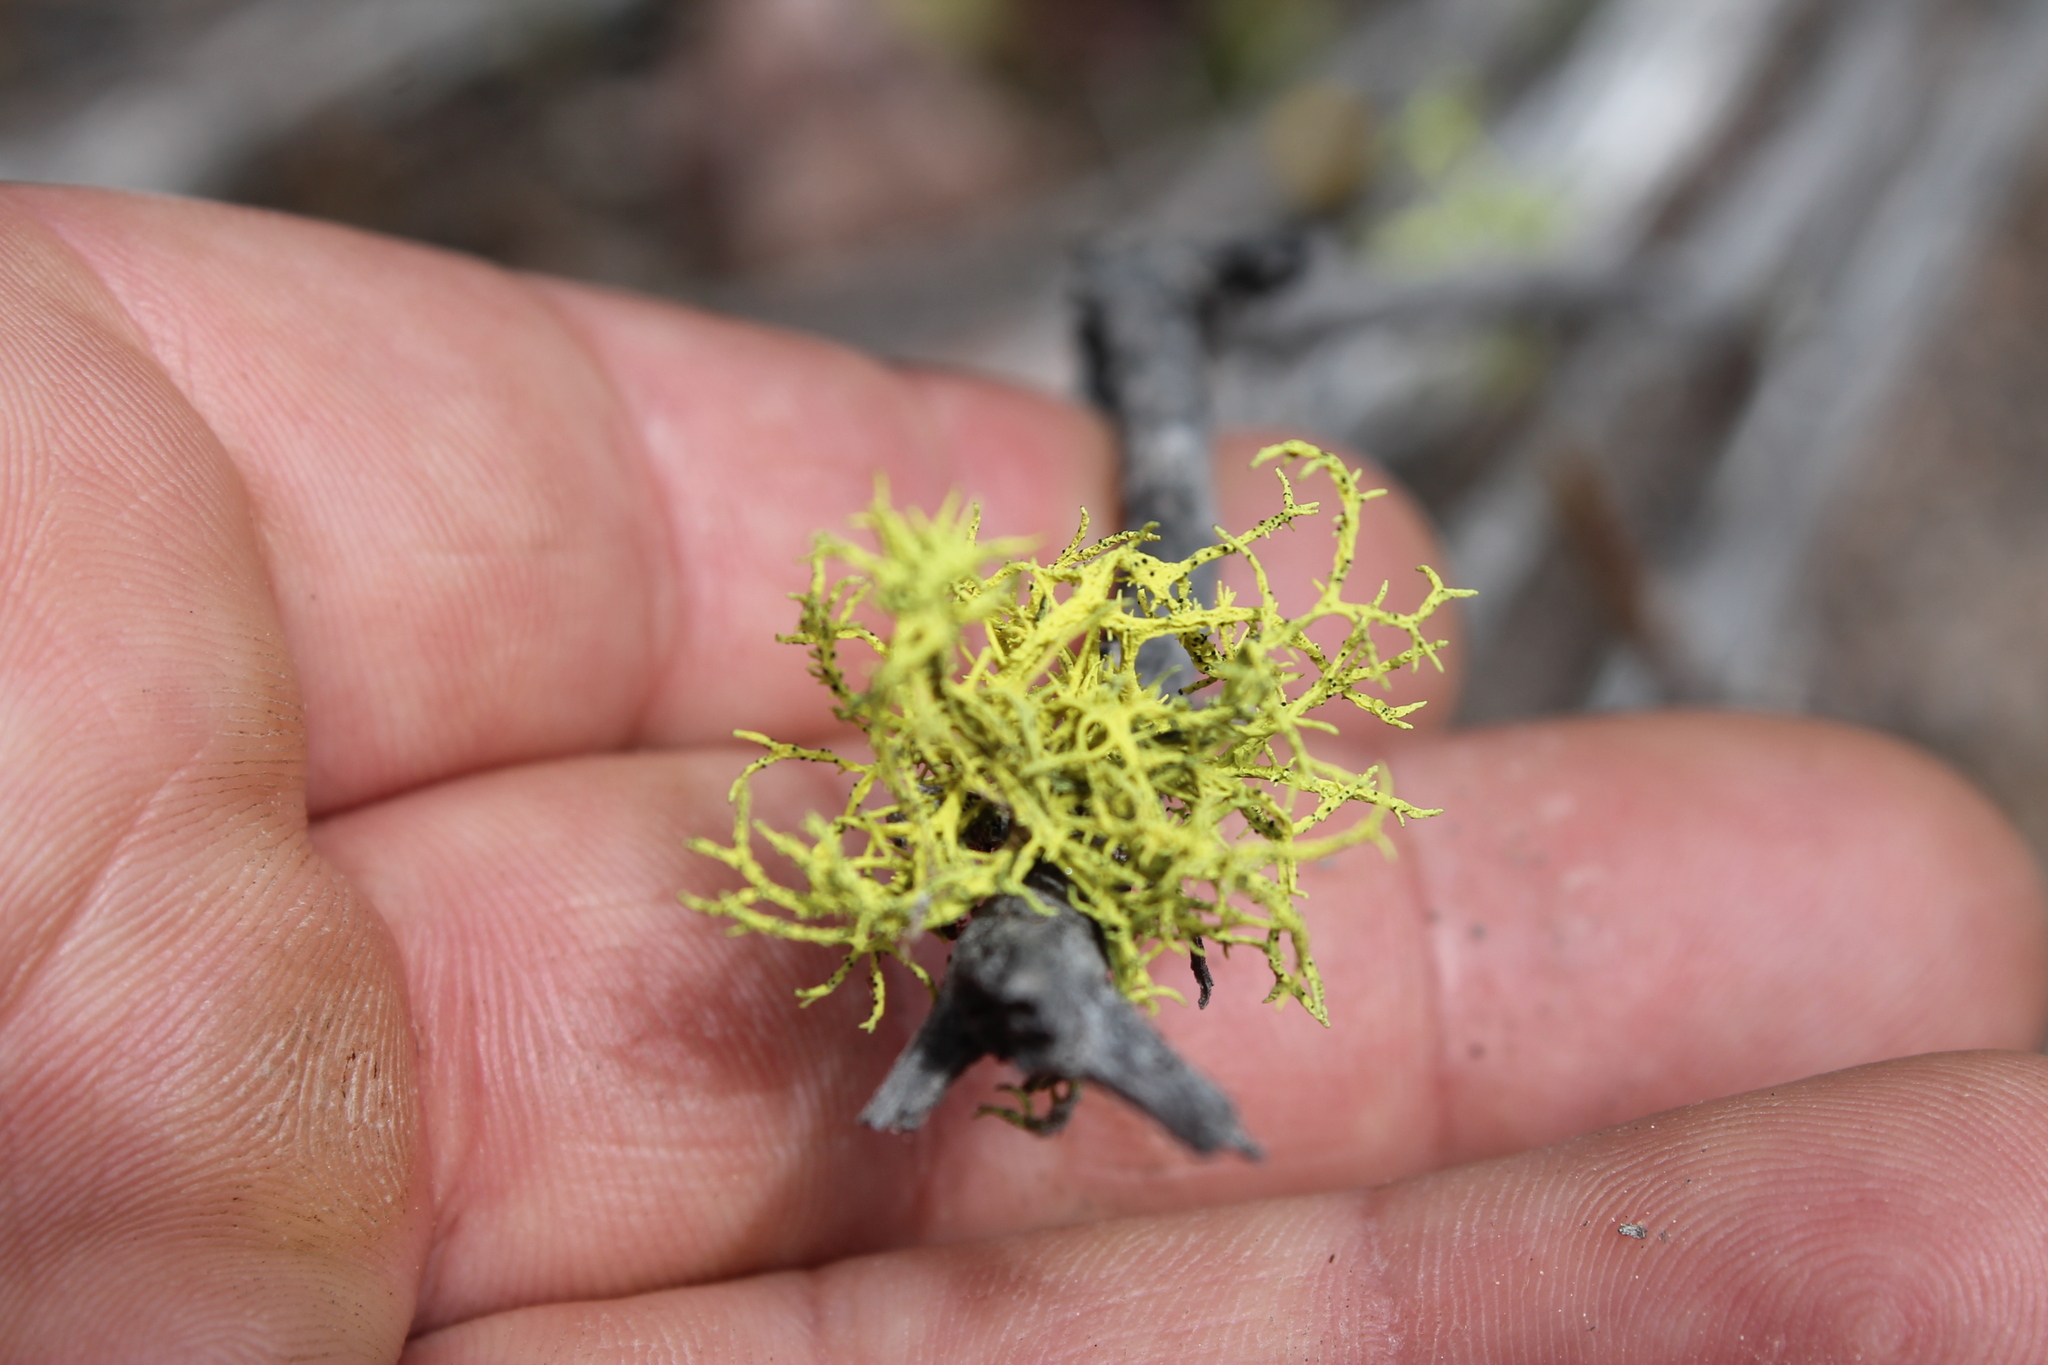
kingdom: Fungi
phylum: Ascomycota
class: Lecanoromycetes
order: Lecanorales
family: Parmeliaceae
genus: Letharia
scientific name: Letharia vulpina
